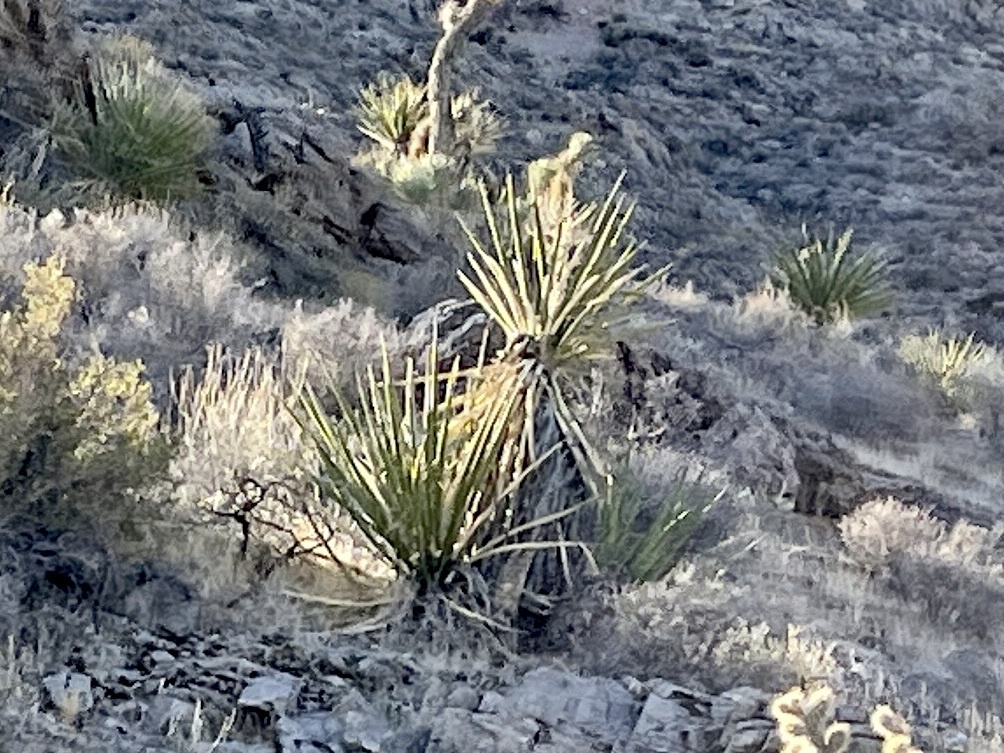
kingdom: Plantae
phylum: Tracheophyta
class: Liliopsida
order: Asparagales
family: Asparagaceae
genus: Yucca
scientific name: Yucca schidigera
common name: Mojave yucca
